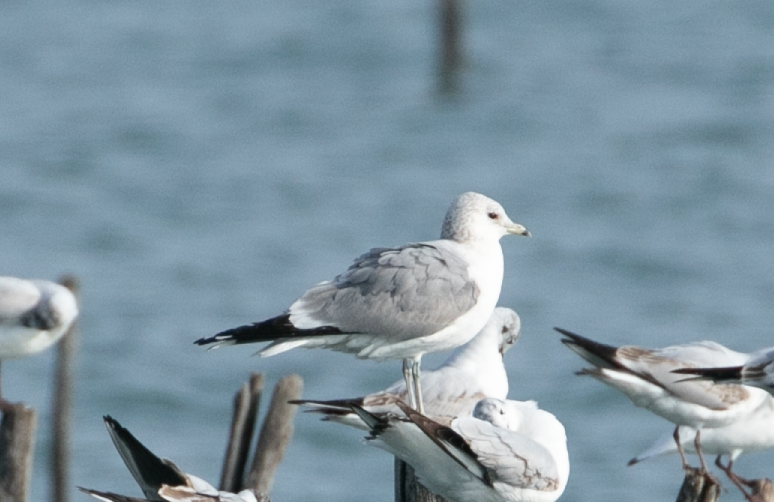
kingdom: Animalia
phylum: Chordata
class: Aves
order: Charadriiformes
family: Laridae
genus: Larus
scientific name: Larus canus
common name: Mew gull
